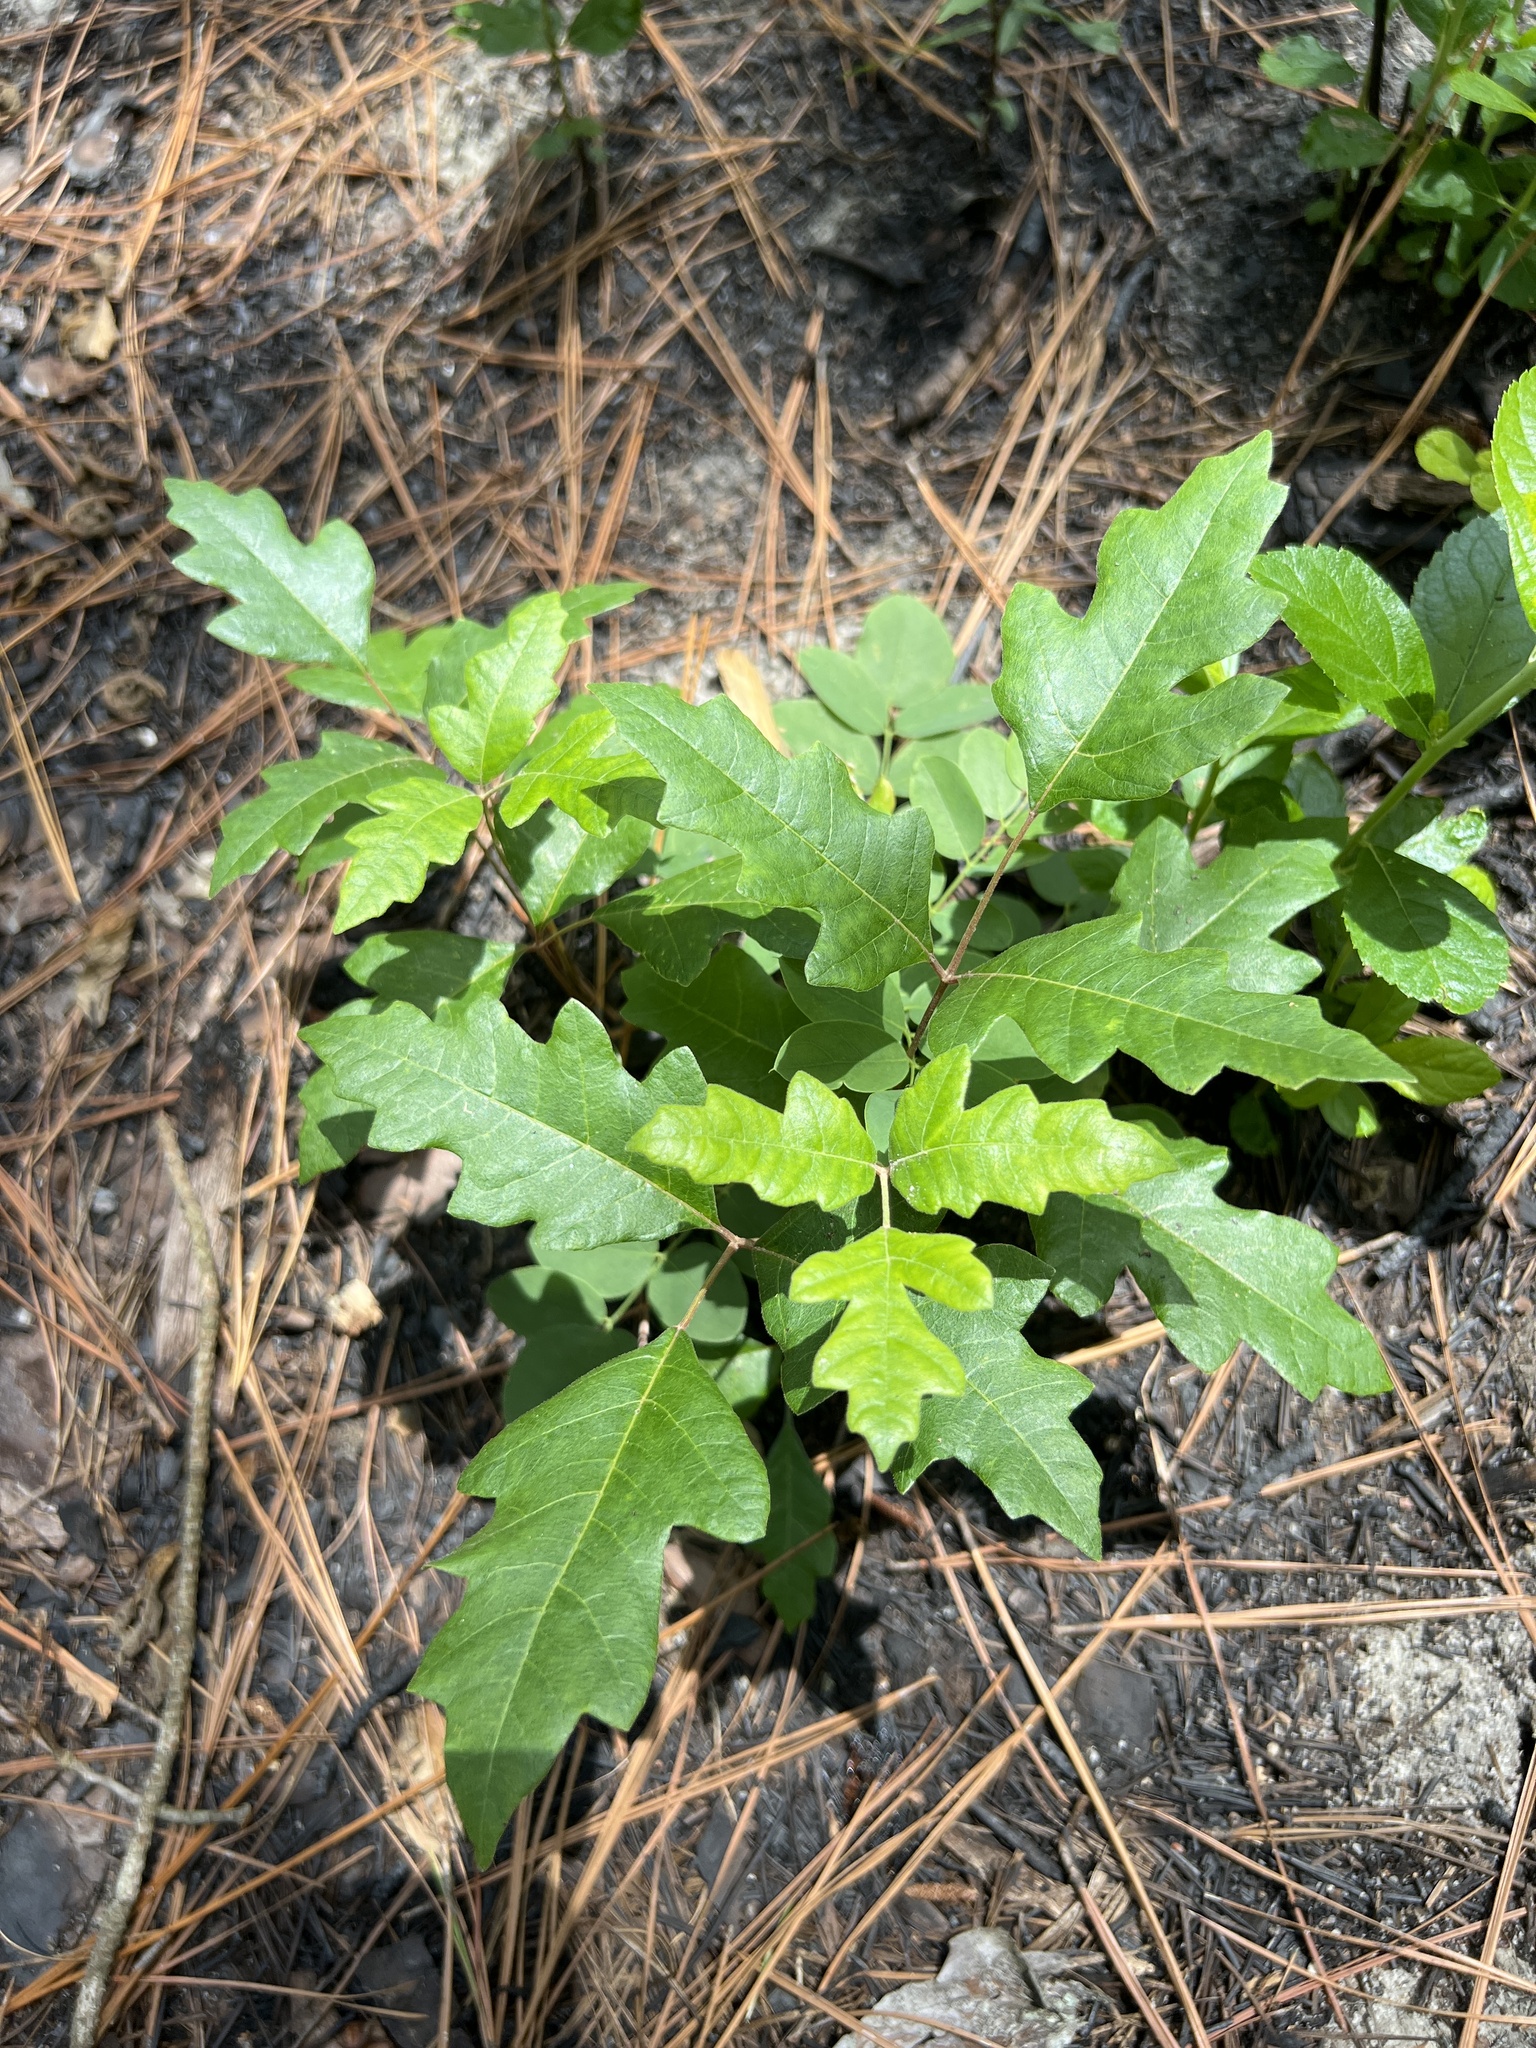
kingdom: Plantae
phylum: Tracheophyta
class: Magnoliopsida
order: Sapindales
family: Anacardiaceae
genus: Toxicodendron
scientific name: Toxicodendron pubescens
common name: Eastern poison-oak
